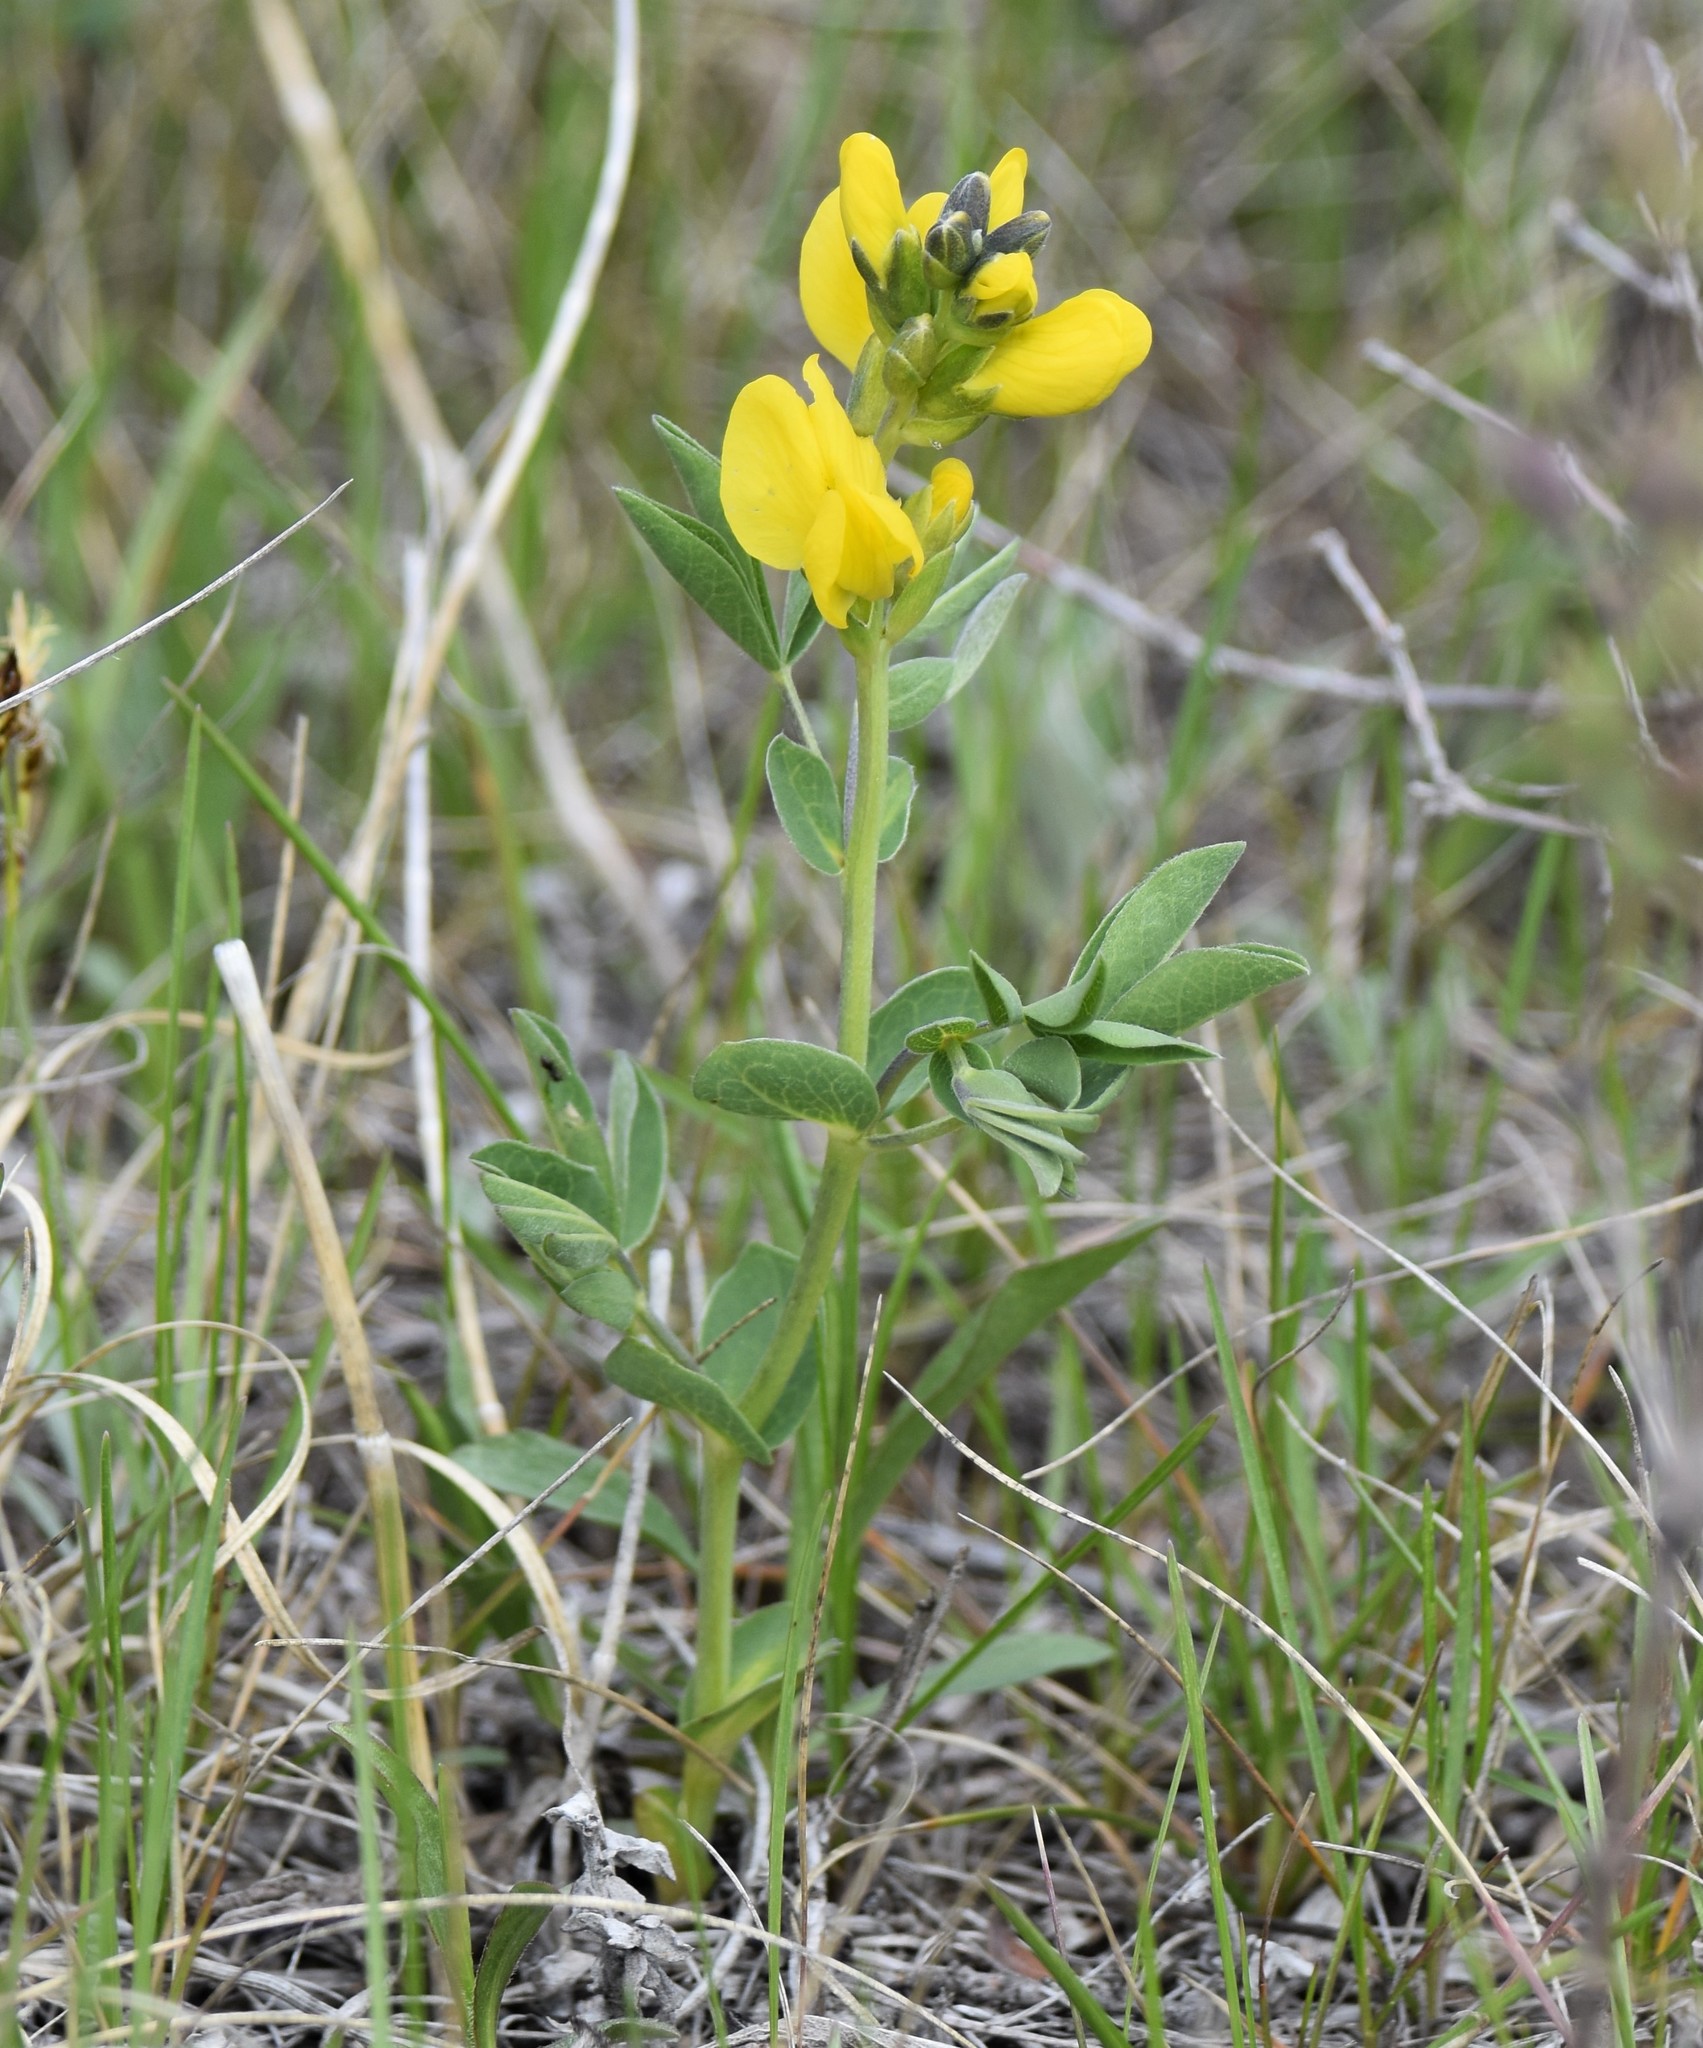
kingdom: Plantae
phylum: Tracheophyta
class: Magnoliopsida
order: Fabales
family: Fabaceae
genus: Thermopsis
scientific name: Thermopsis rhombifolia
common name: Circle-pod-pea
